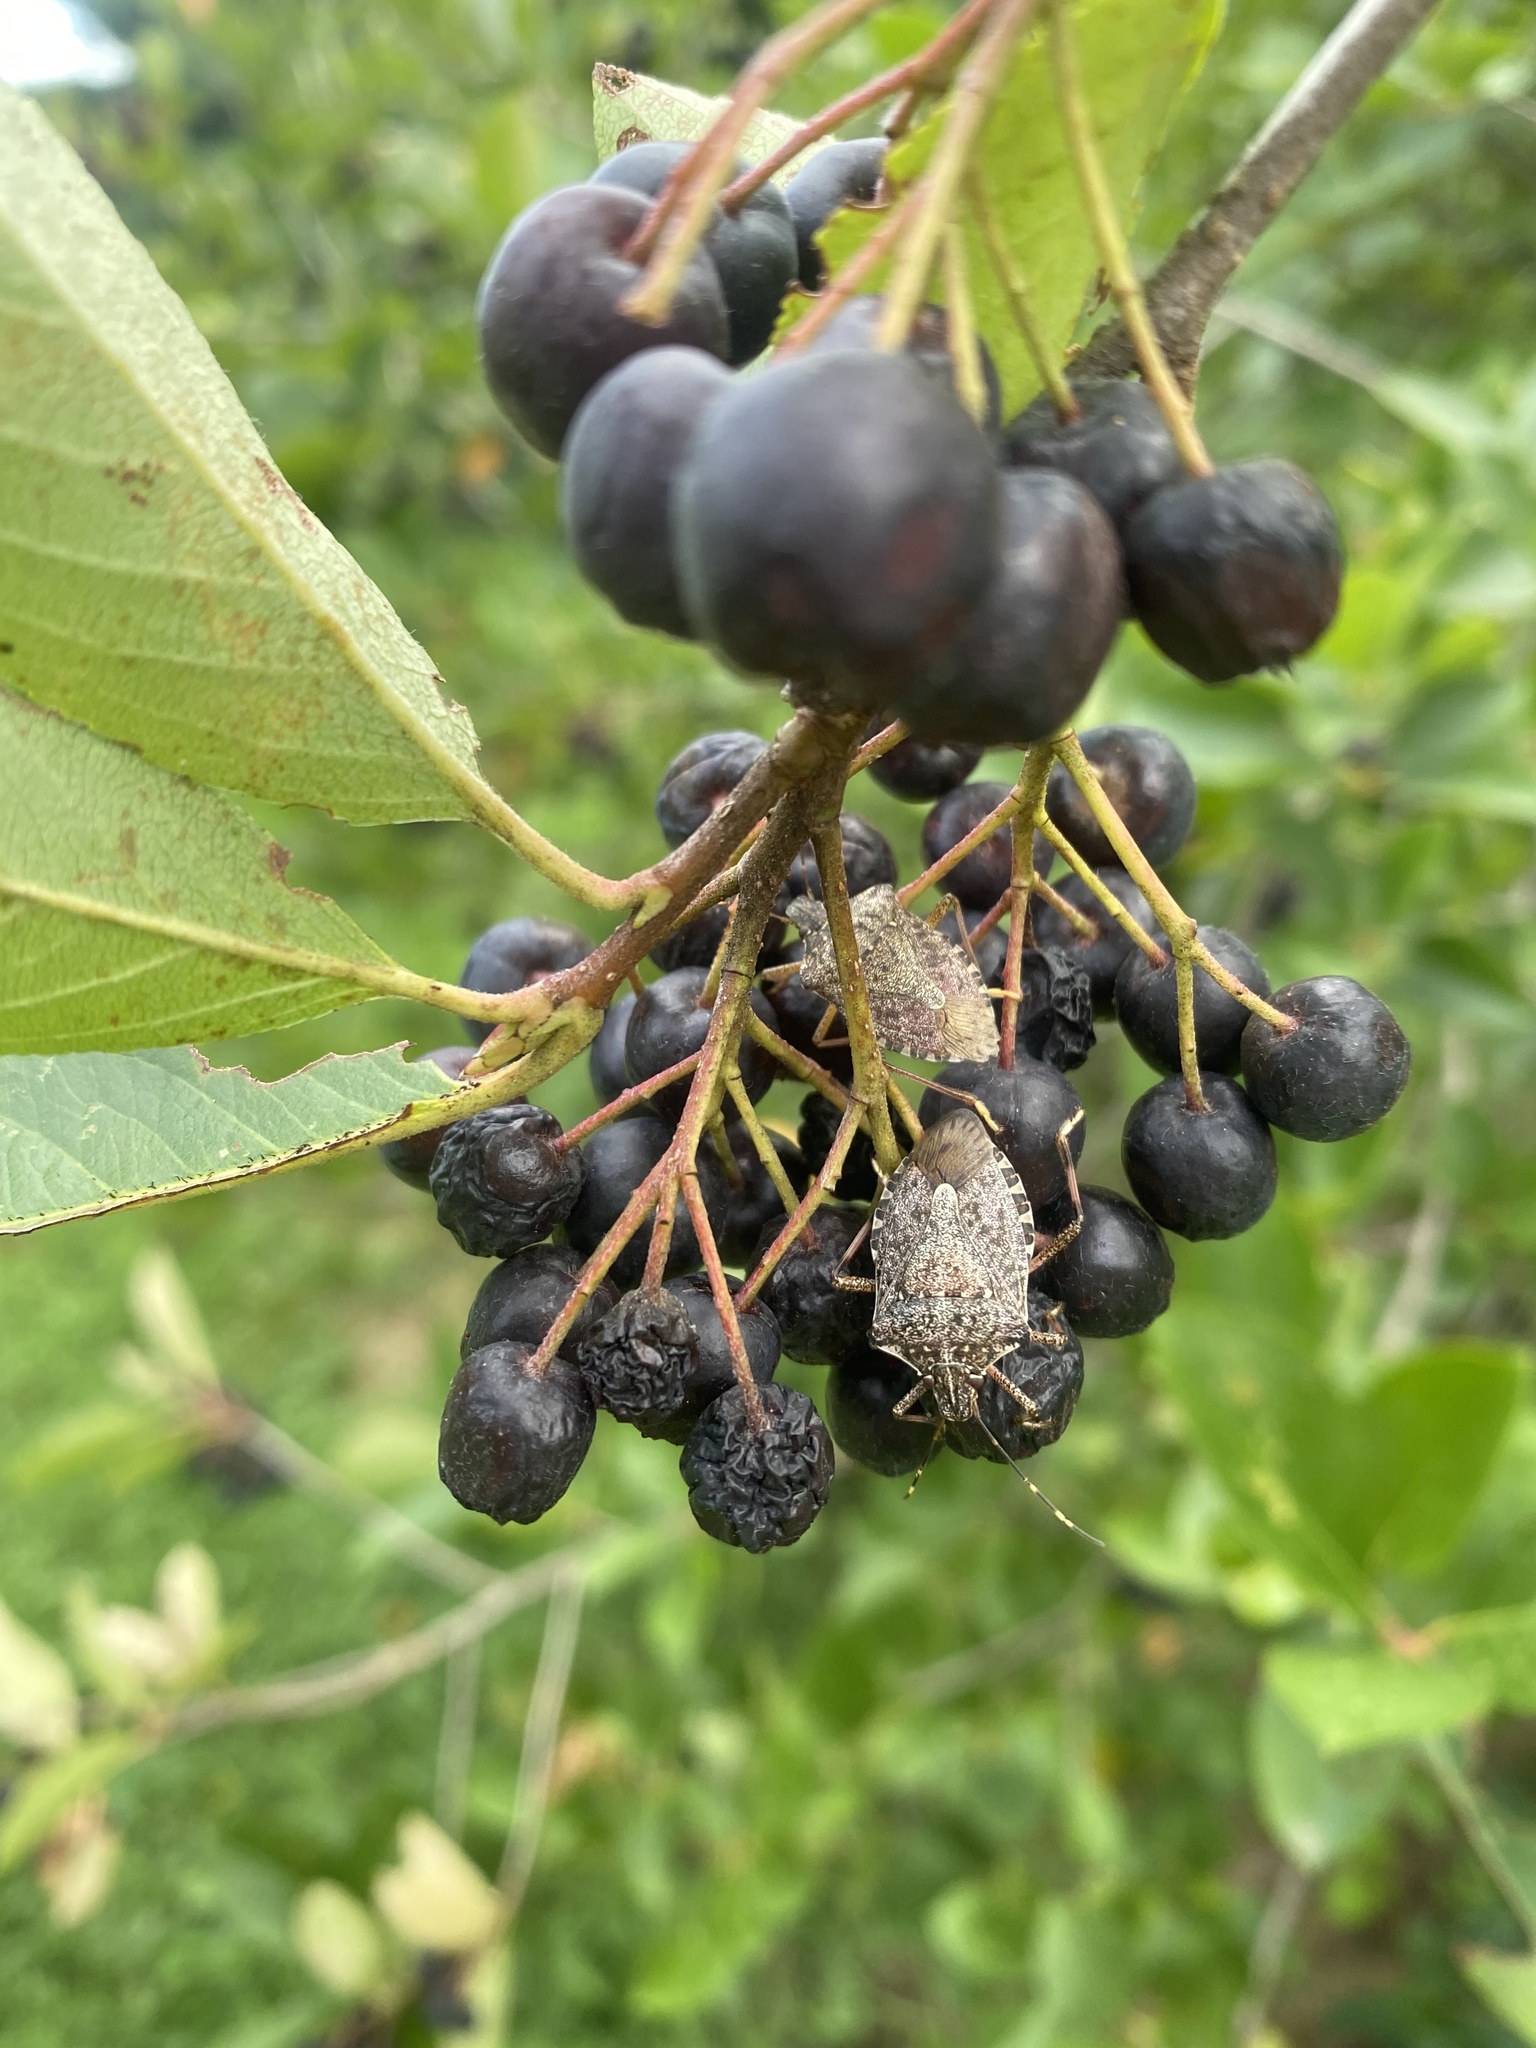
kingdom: Animalia
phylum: Arthropoda
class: Insecta
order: Hemiptera
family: Pentatomidae
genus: Halyomorpha
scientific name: Halyomorpha halys
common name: Brown marmorated stink bug
